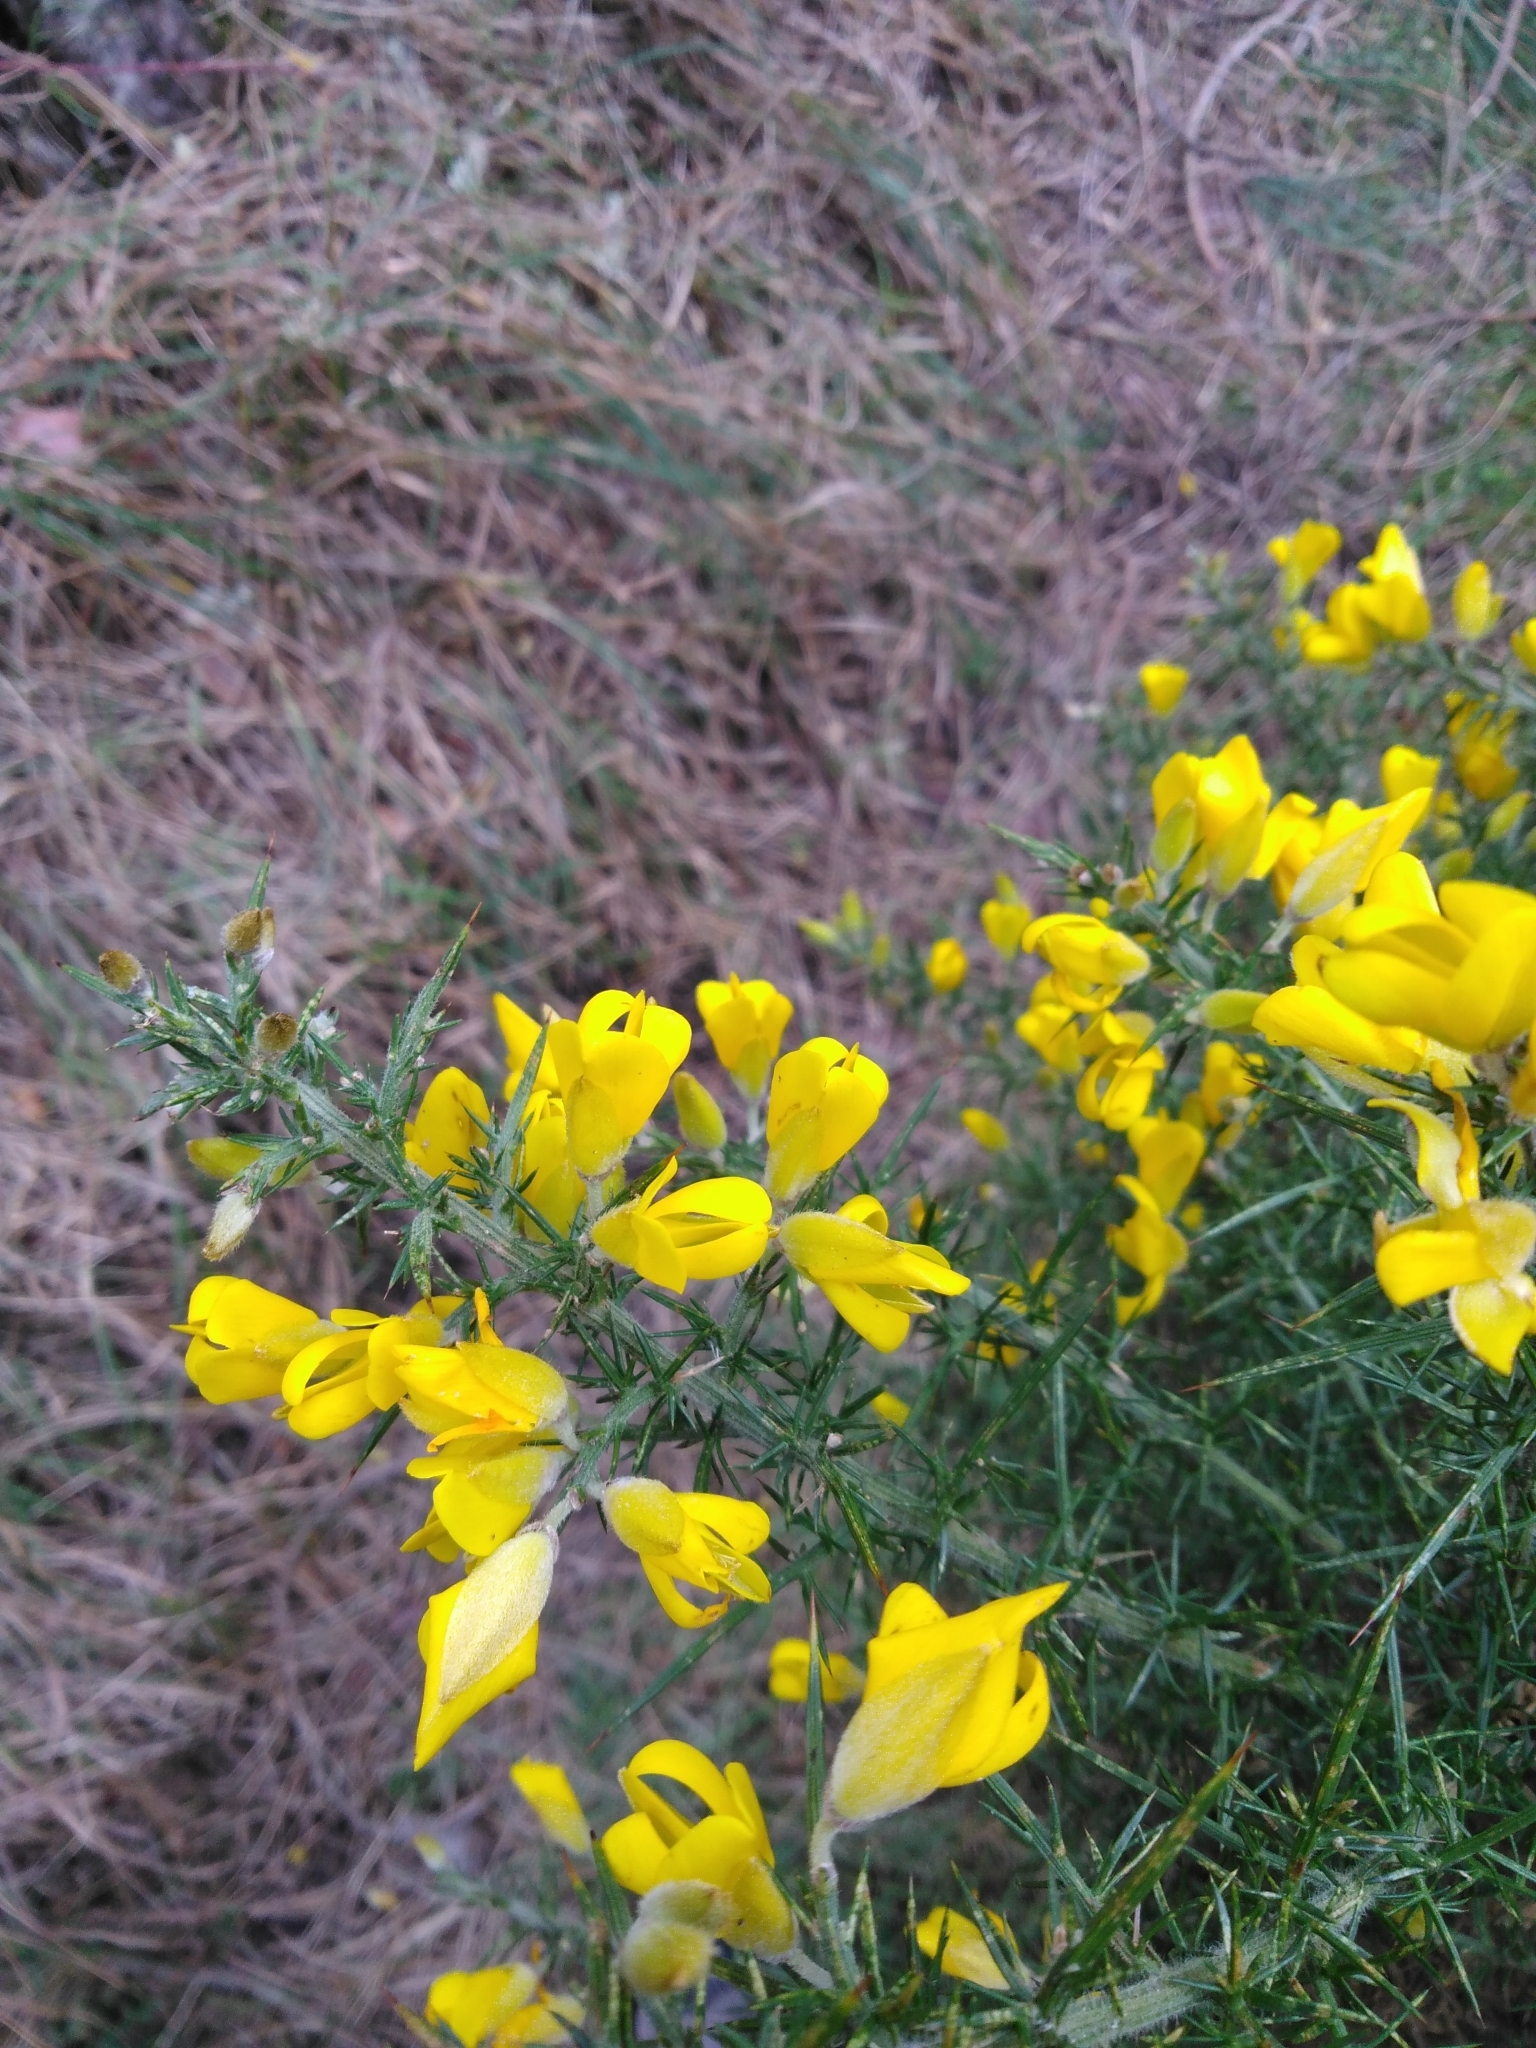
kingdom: Plantae
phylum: Tracheophyta
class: Magnoliopsida
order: Fabales
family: Fabaceae
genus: Ulex
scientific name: Ulex europaeus
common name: Common gorse
